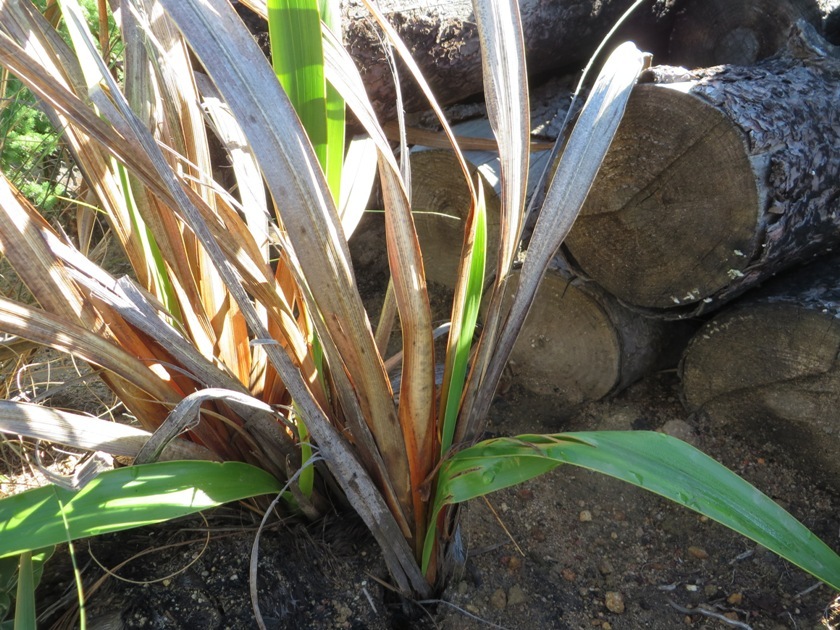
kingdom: Plantae
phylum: Tracheophyta
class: Liliopsida
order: Asparagales
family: Iridaceae
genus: Watsonia
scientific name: Watsonia borbonica
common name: Bugle-lily
